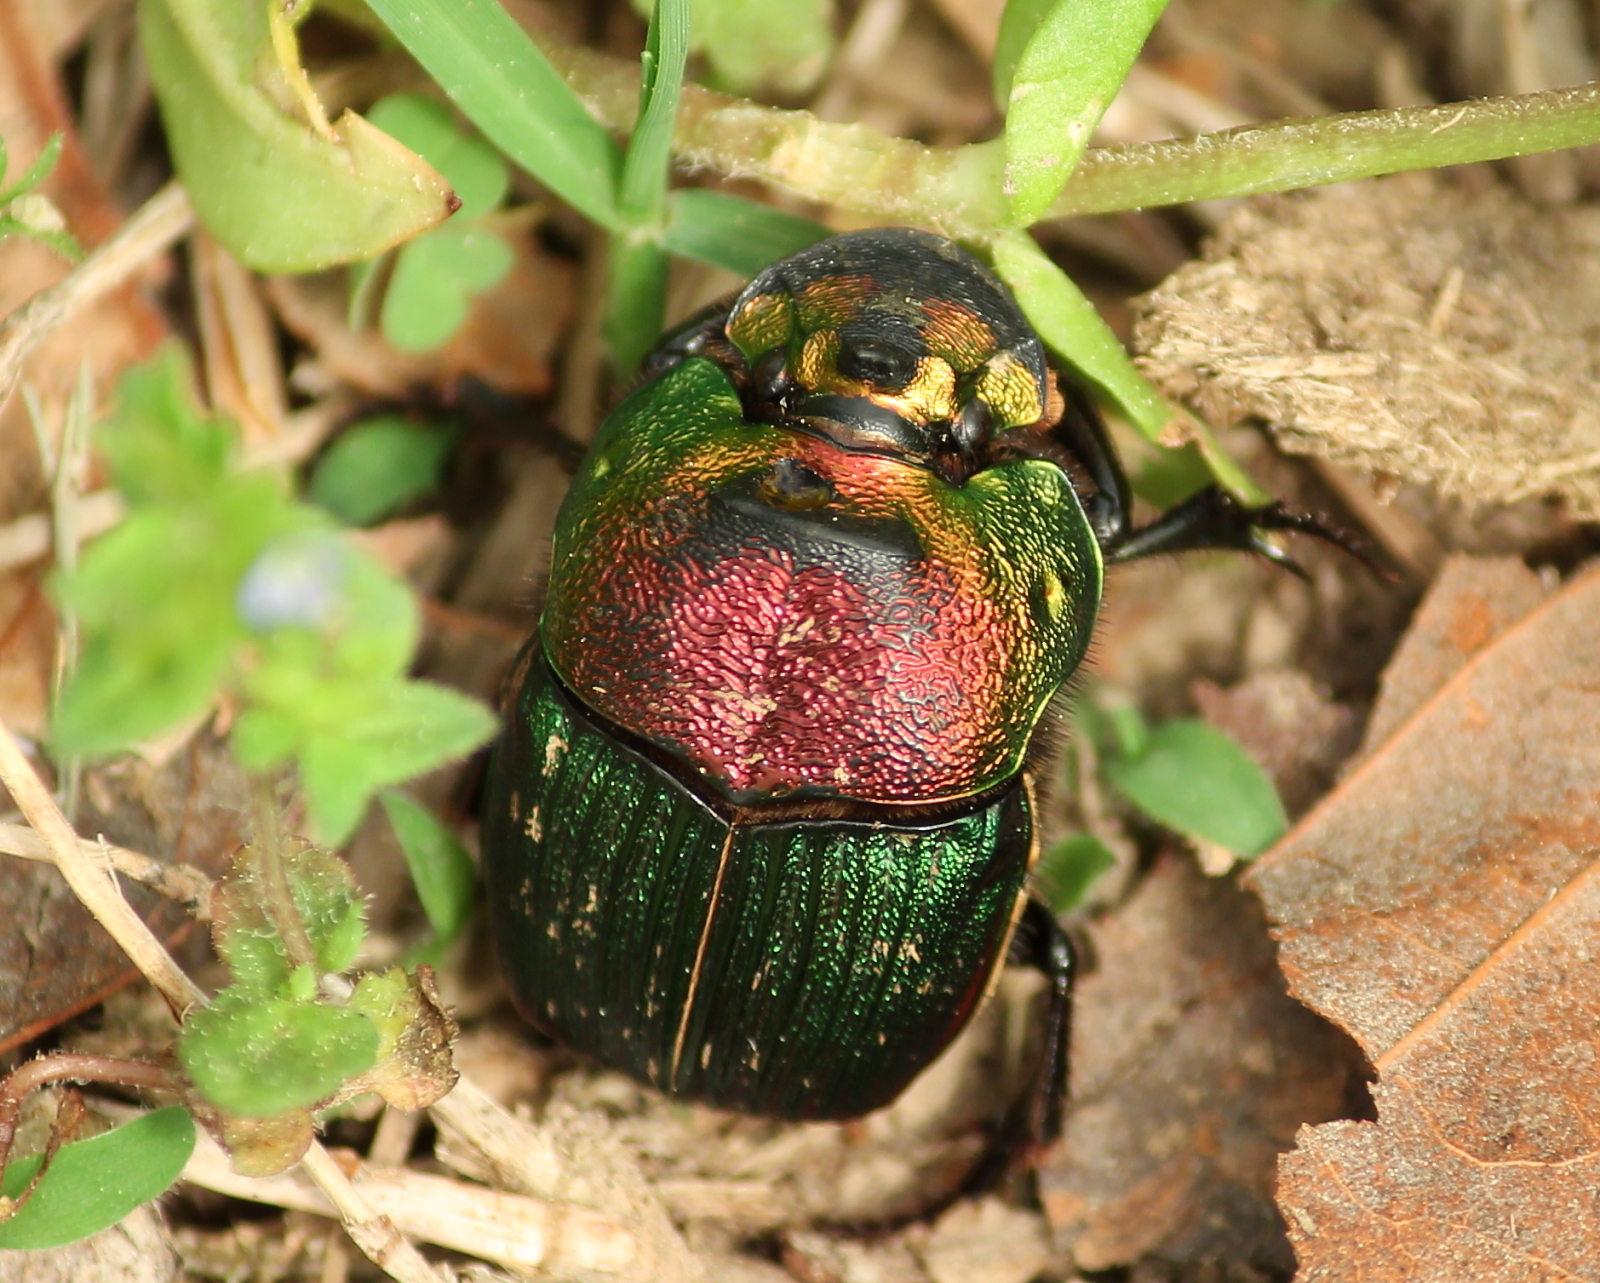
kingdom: Animalia
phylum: Arthropoda
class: Insecta
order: Coleoptera
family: Scarabaeidae
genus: Phanaeus
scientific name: Phanaeus vindex
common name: Rainbow scarab
